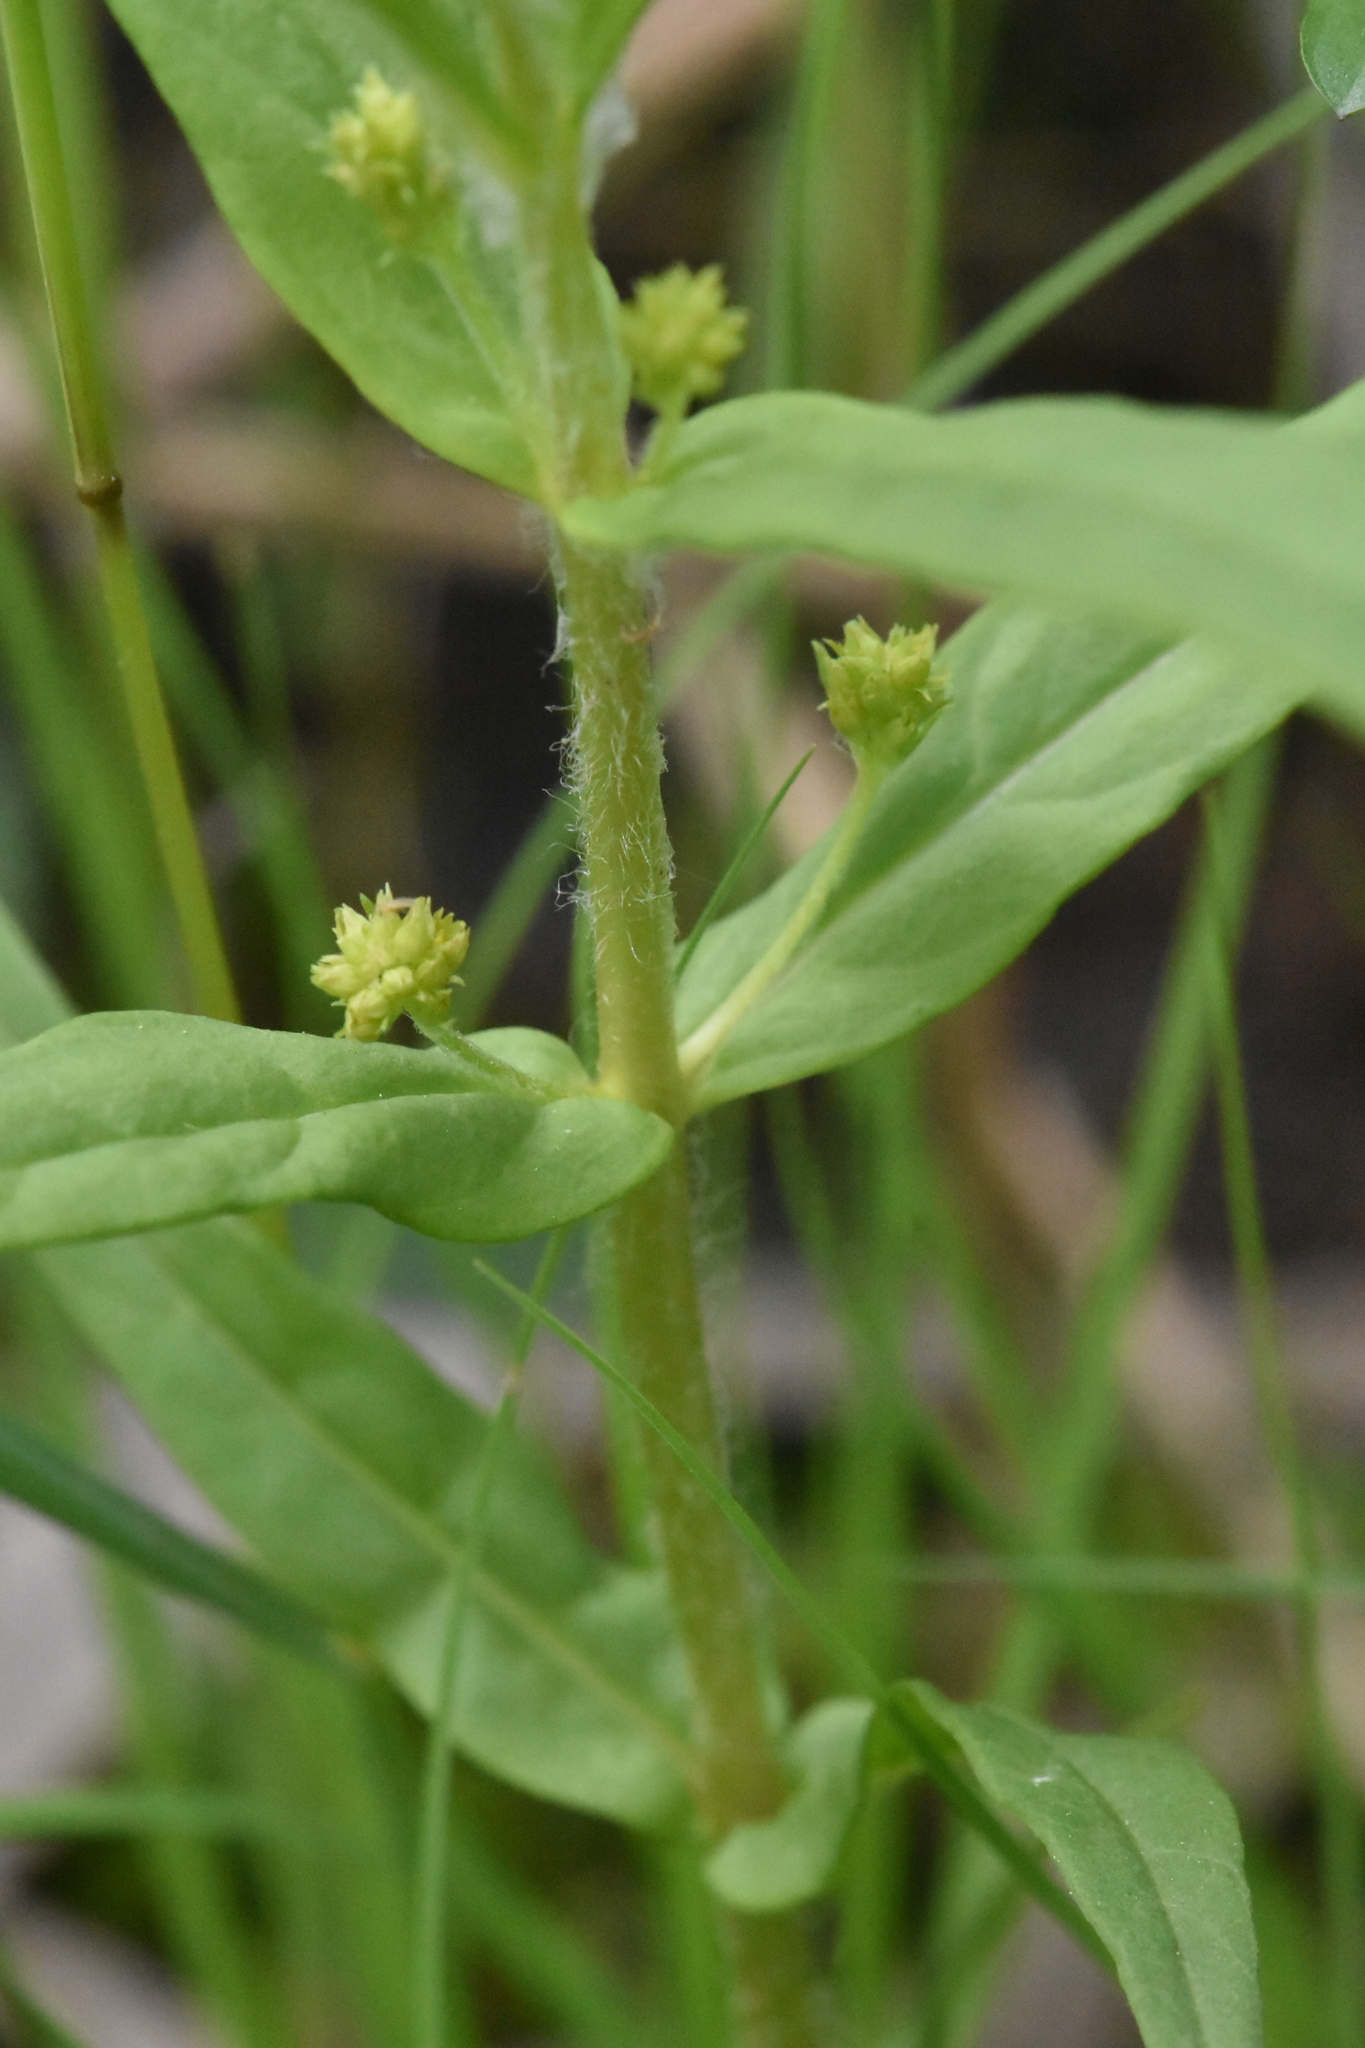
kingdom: Plantae
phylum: Tracheophyta
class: Magnoliopsida
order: Ericales
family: Primulaceae
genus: Lysimachia
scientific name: Lysimachia thyrsiflora
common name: Tufted loosestrife
